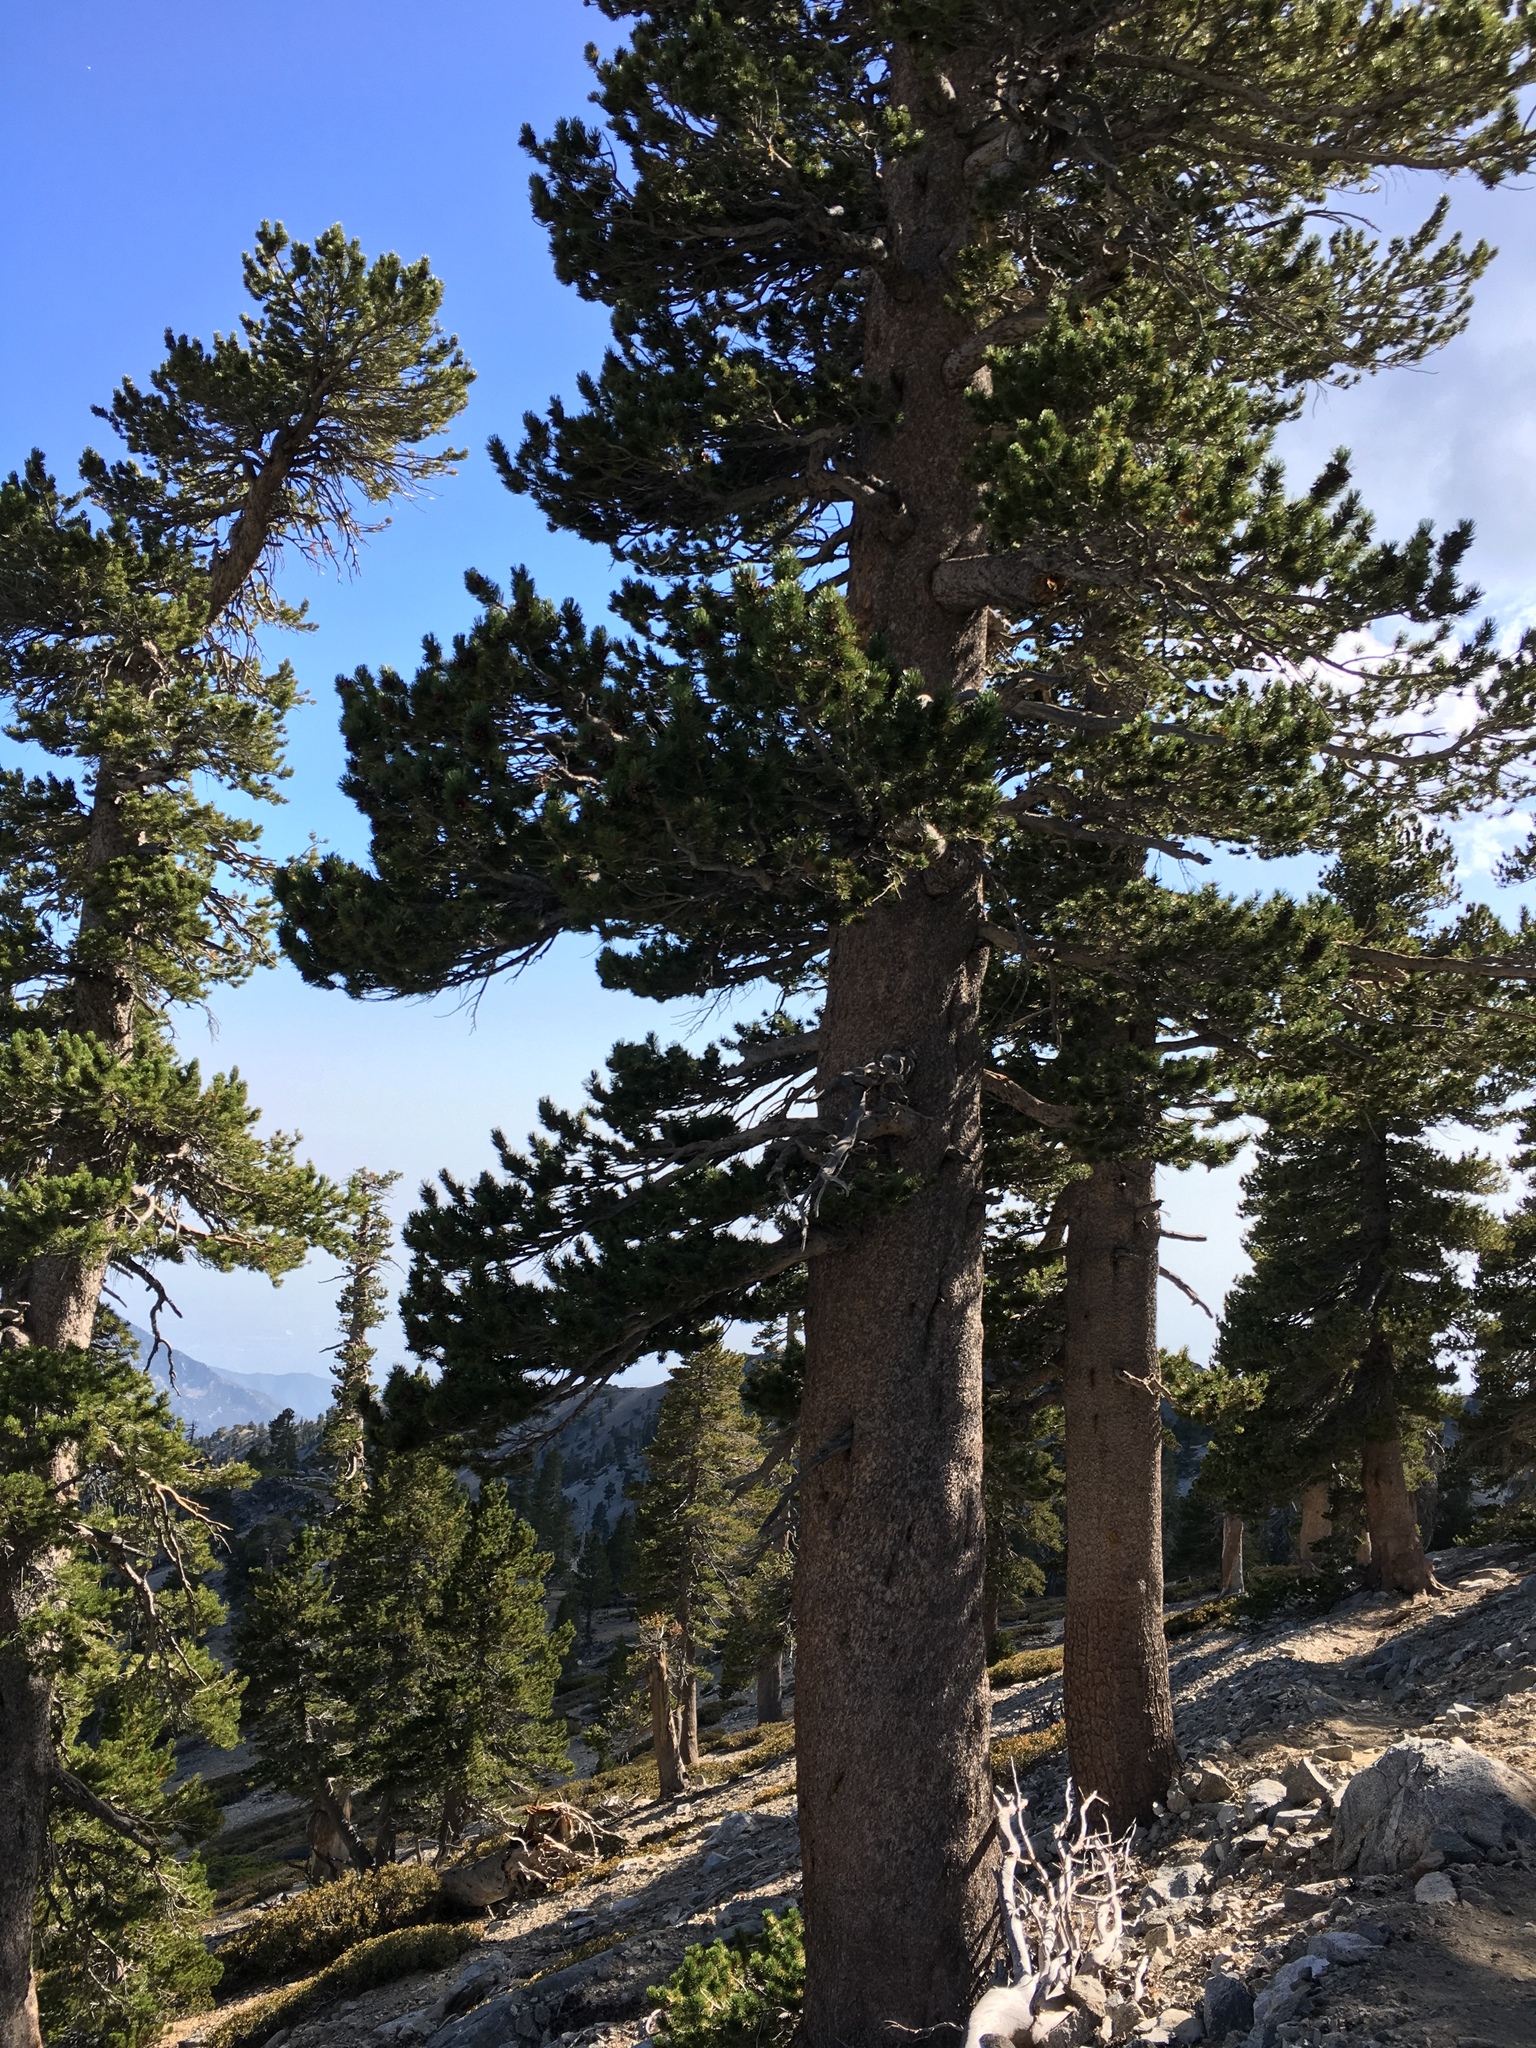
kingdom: Plantae
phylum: Tracheophyta
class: Pinopsida
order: Pinales
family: Pinaceae
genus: Pinus
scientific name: Pinus contorta
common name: Lodgepole pine
